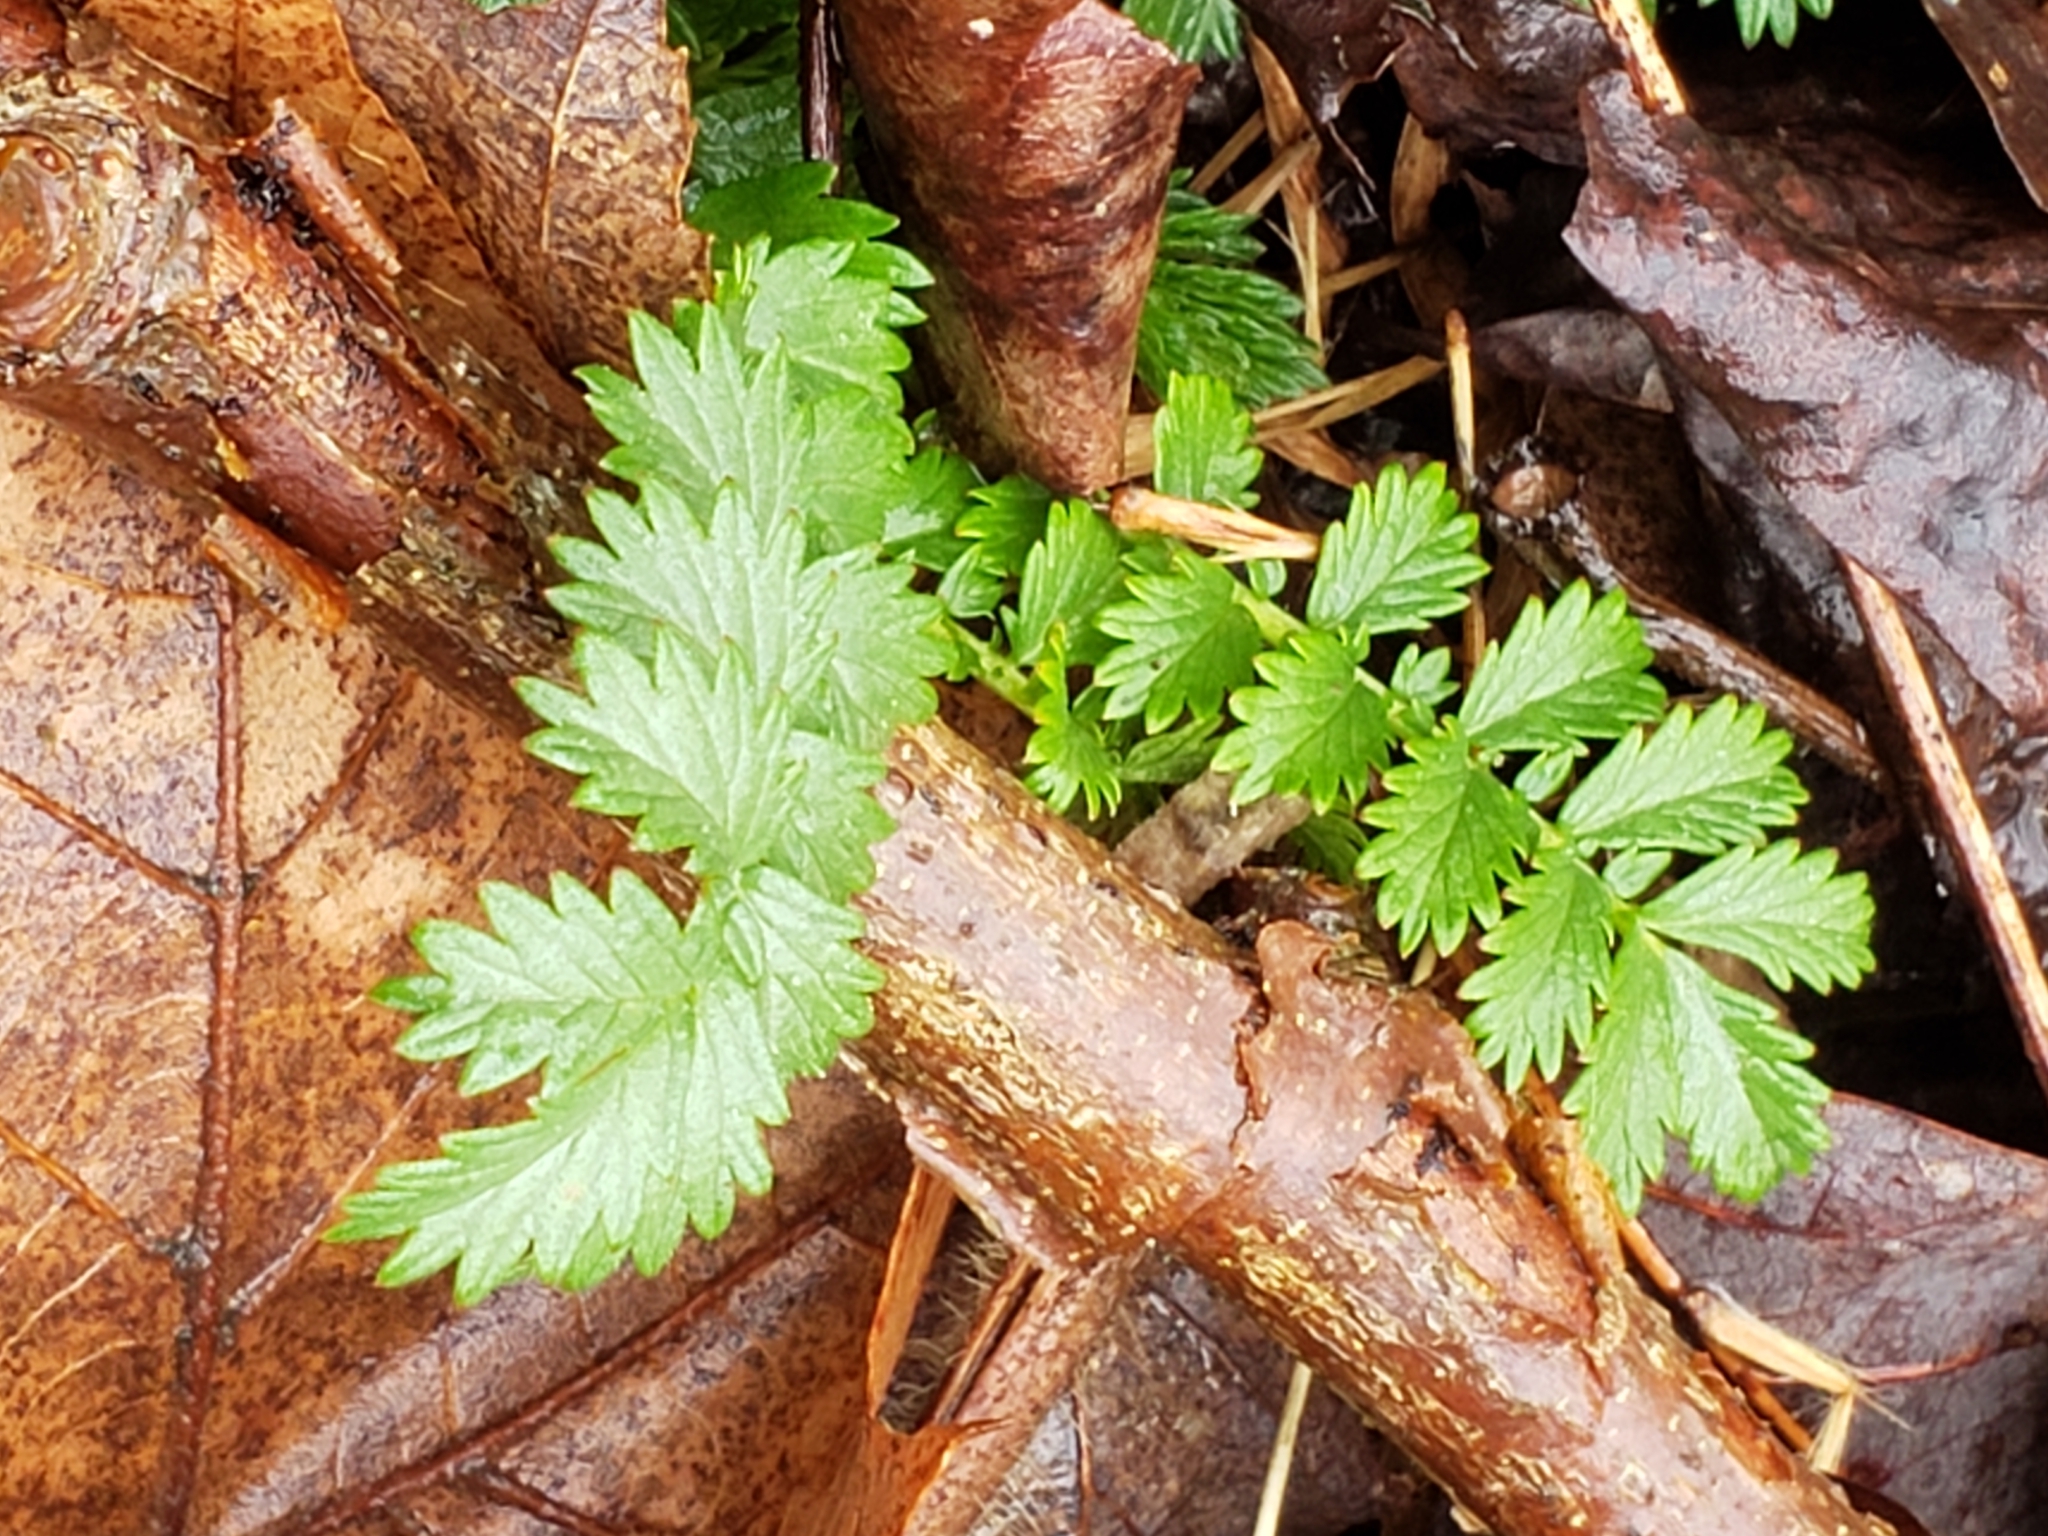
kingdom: Plantae
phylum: Tracheophyta
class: Magnoliopsida
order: Rosales
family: Rosaceae
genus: Agrimonia
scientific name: Agrimonia rostellata
